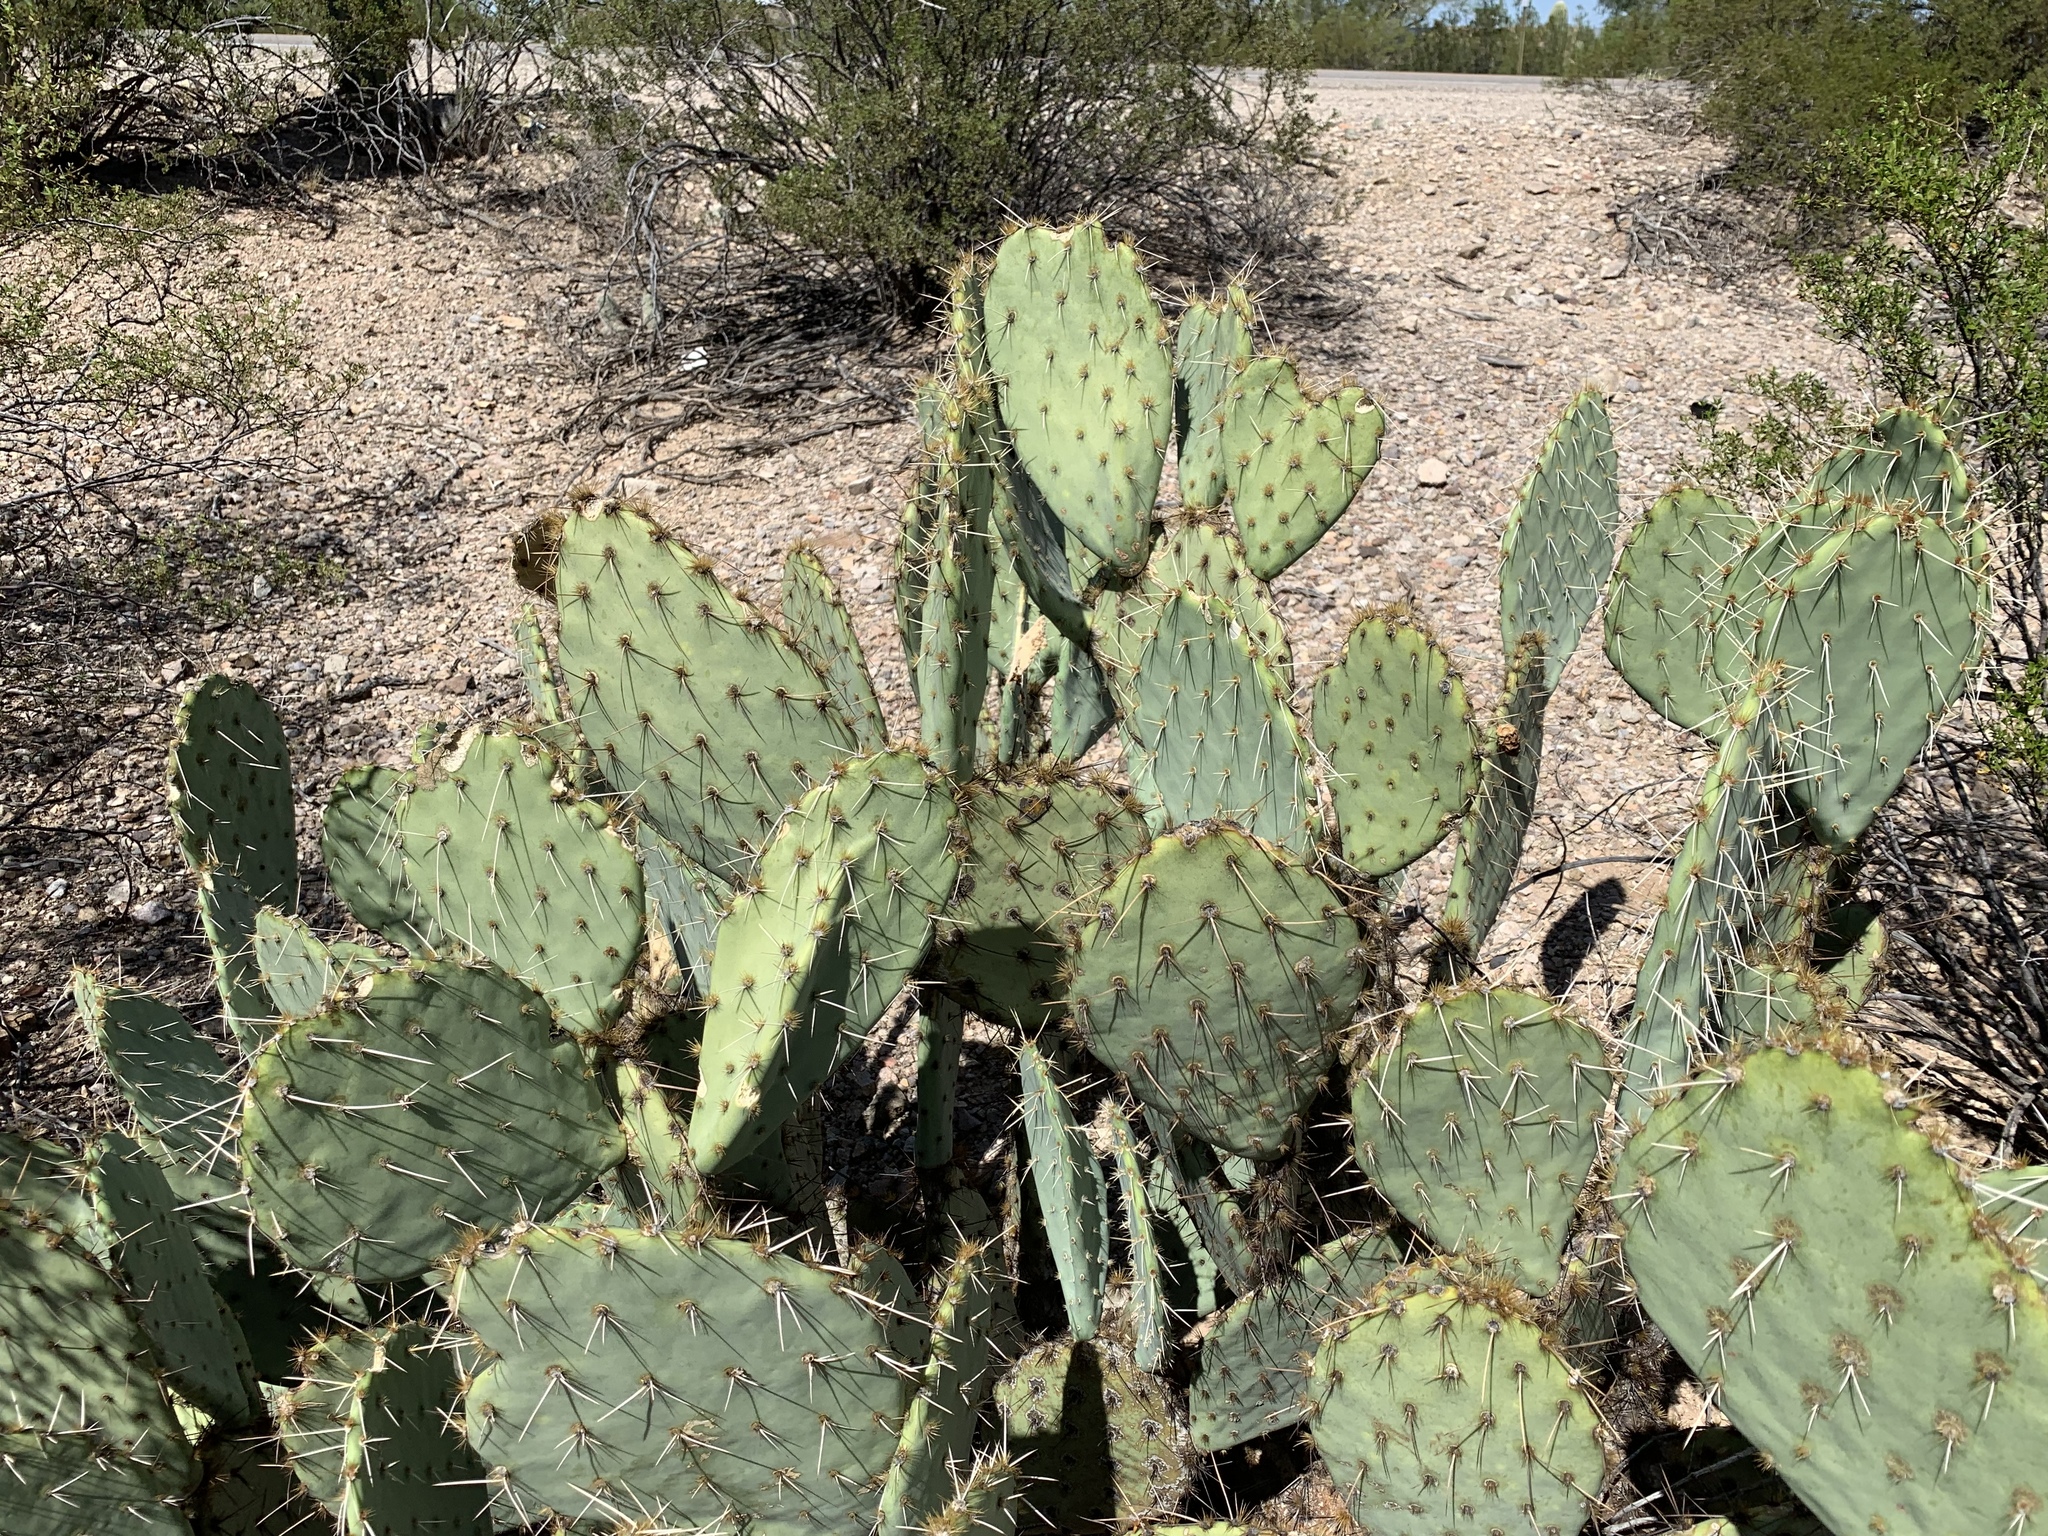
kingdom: Plantae
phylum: Tracheophyta
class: Magnoliopsida
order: Caryophyllales
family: Cactaceae
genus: Opuntia
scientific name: Opuntia engelmannii
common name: Cactus-apple
